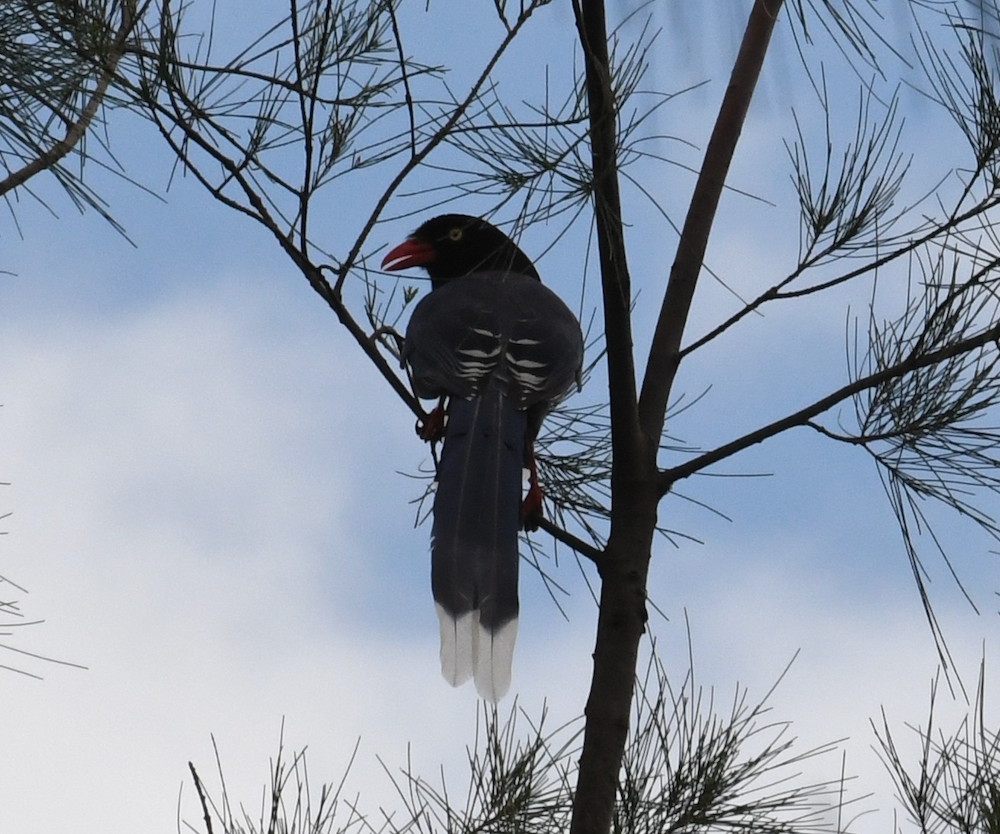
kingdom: Animalia
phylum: Chordata
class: Aves
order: Passeriformes
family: Corvidae
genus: Urocissa
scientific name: Urocissa caerulea
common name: Taiwan blue magpie
